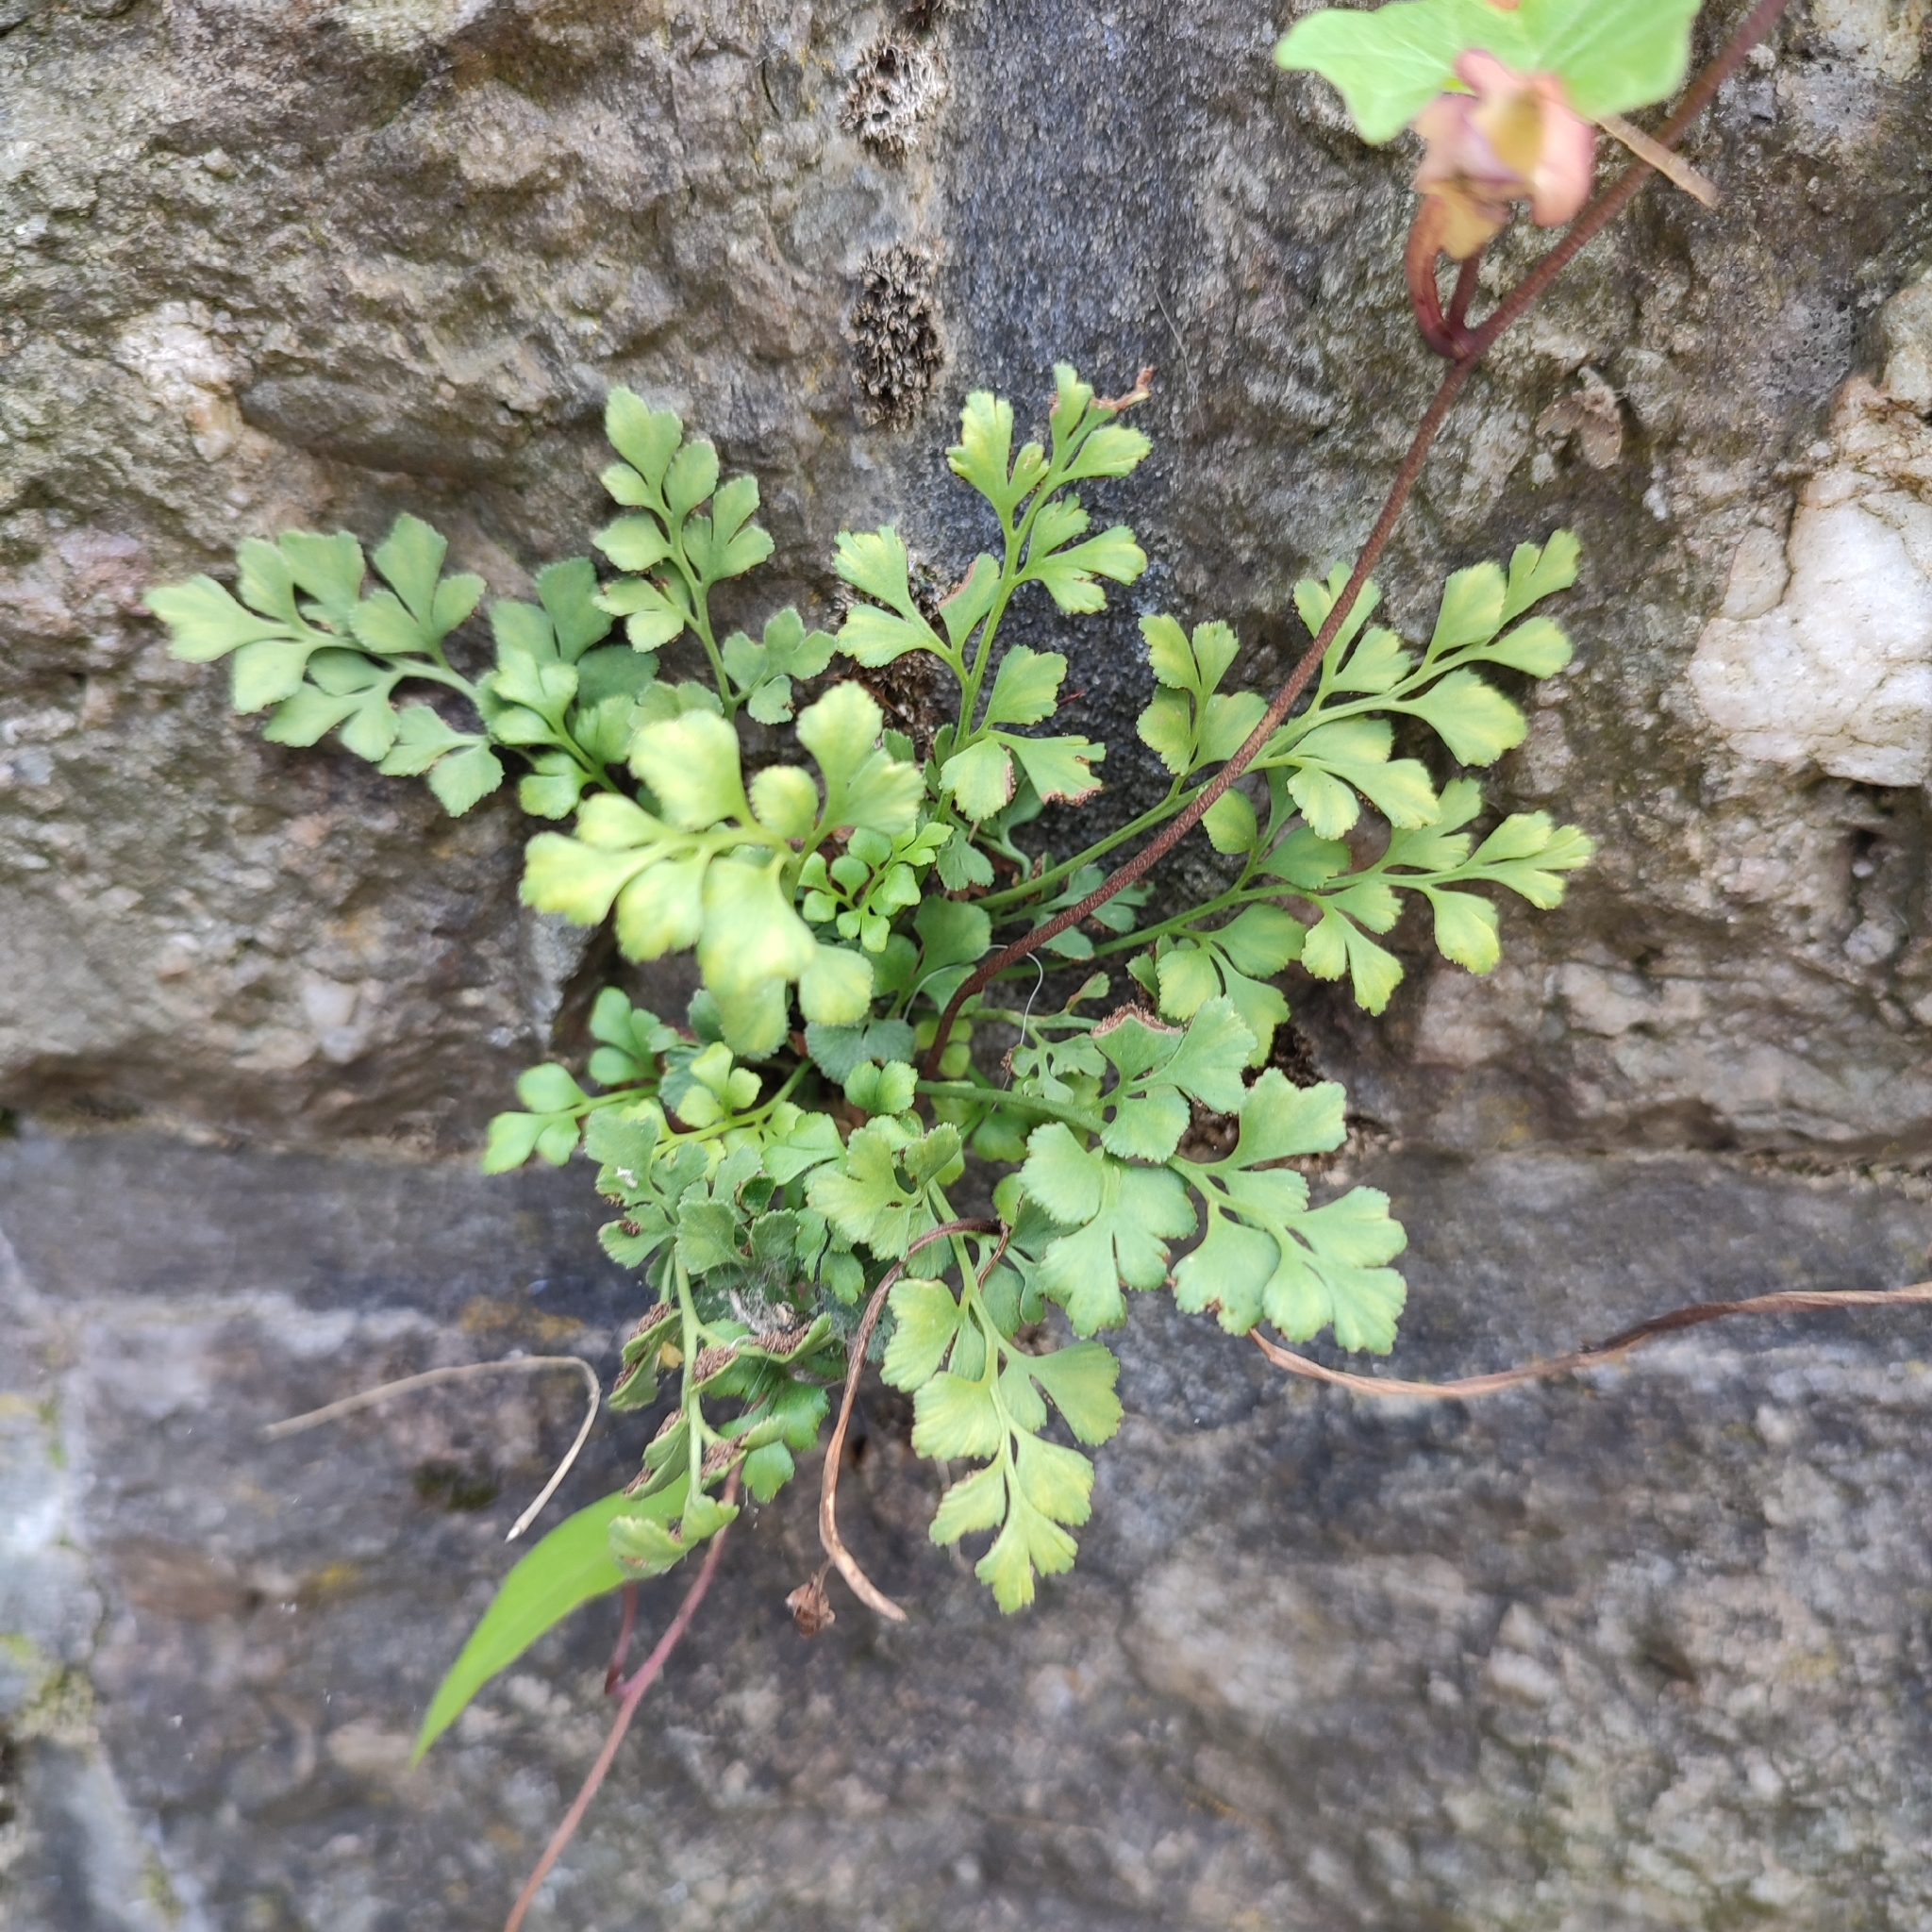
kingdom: Plantae
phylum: Tracheophyta
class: Polypodiopsida
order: Polypodiales
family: Aspleniaceae
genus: Asplenium
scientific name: Asplenium ruta-muraria
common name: Wall-rue
